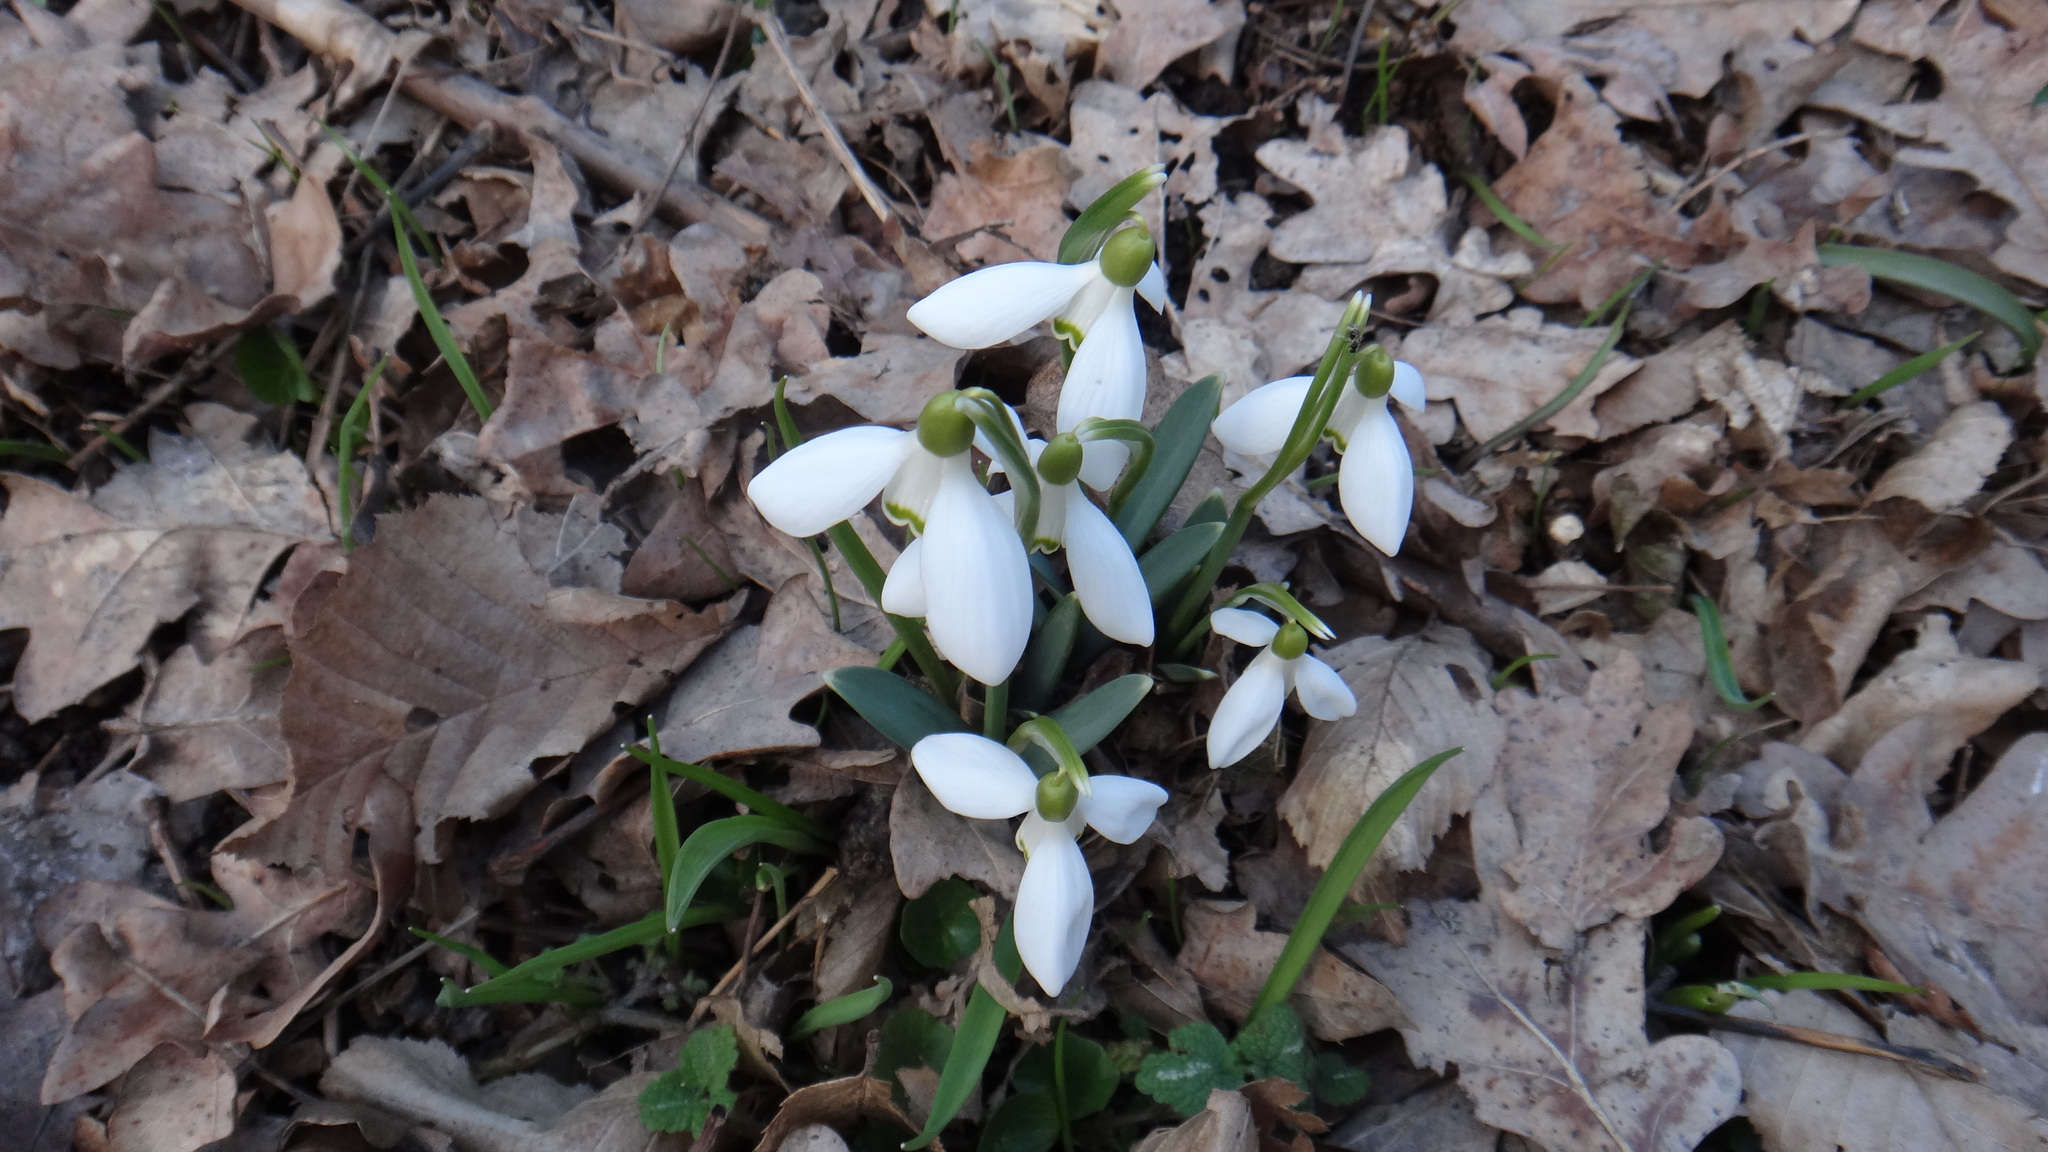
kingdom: Plantae
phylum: Tracheophyta
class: Liliopsida
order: Asparagales
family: Amaryllidaceae
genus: Galanthus
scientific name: Galanthus nivalis
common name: Snowdrop
